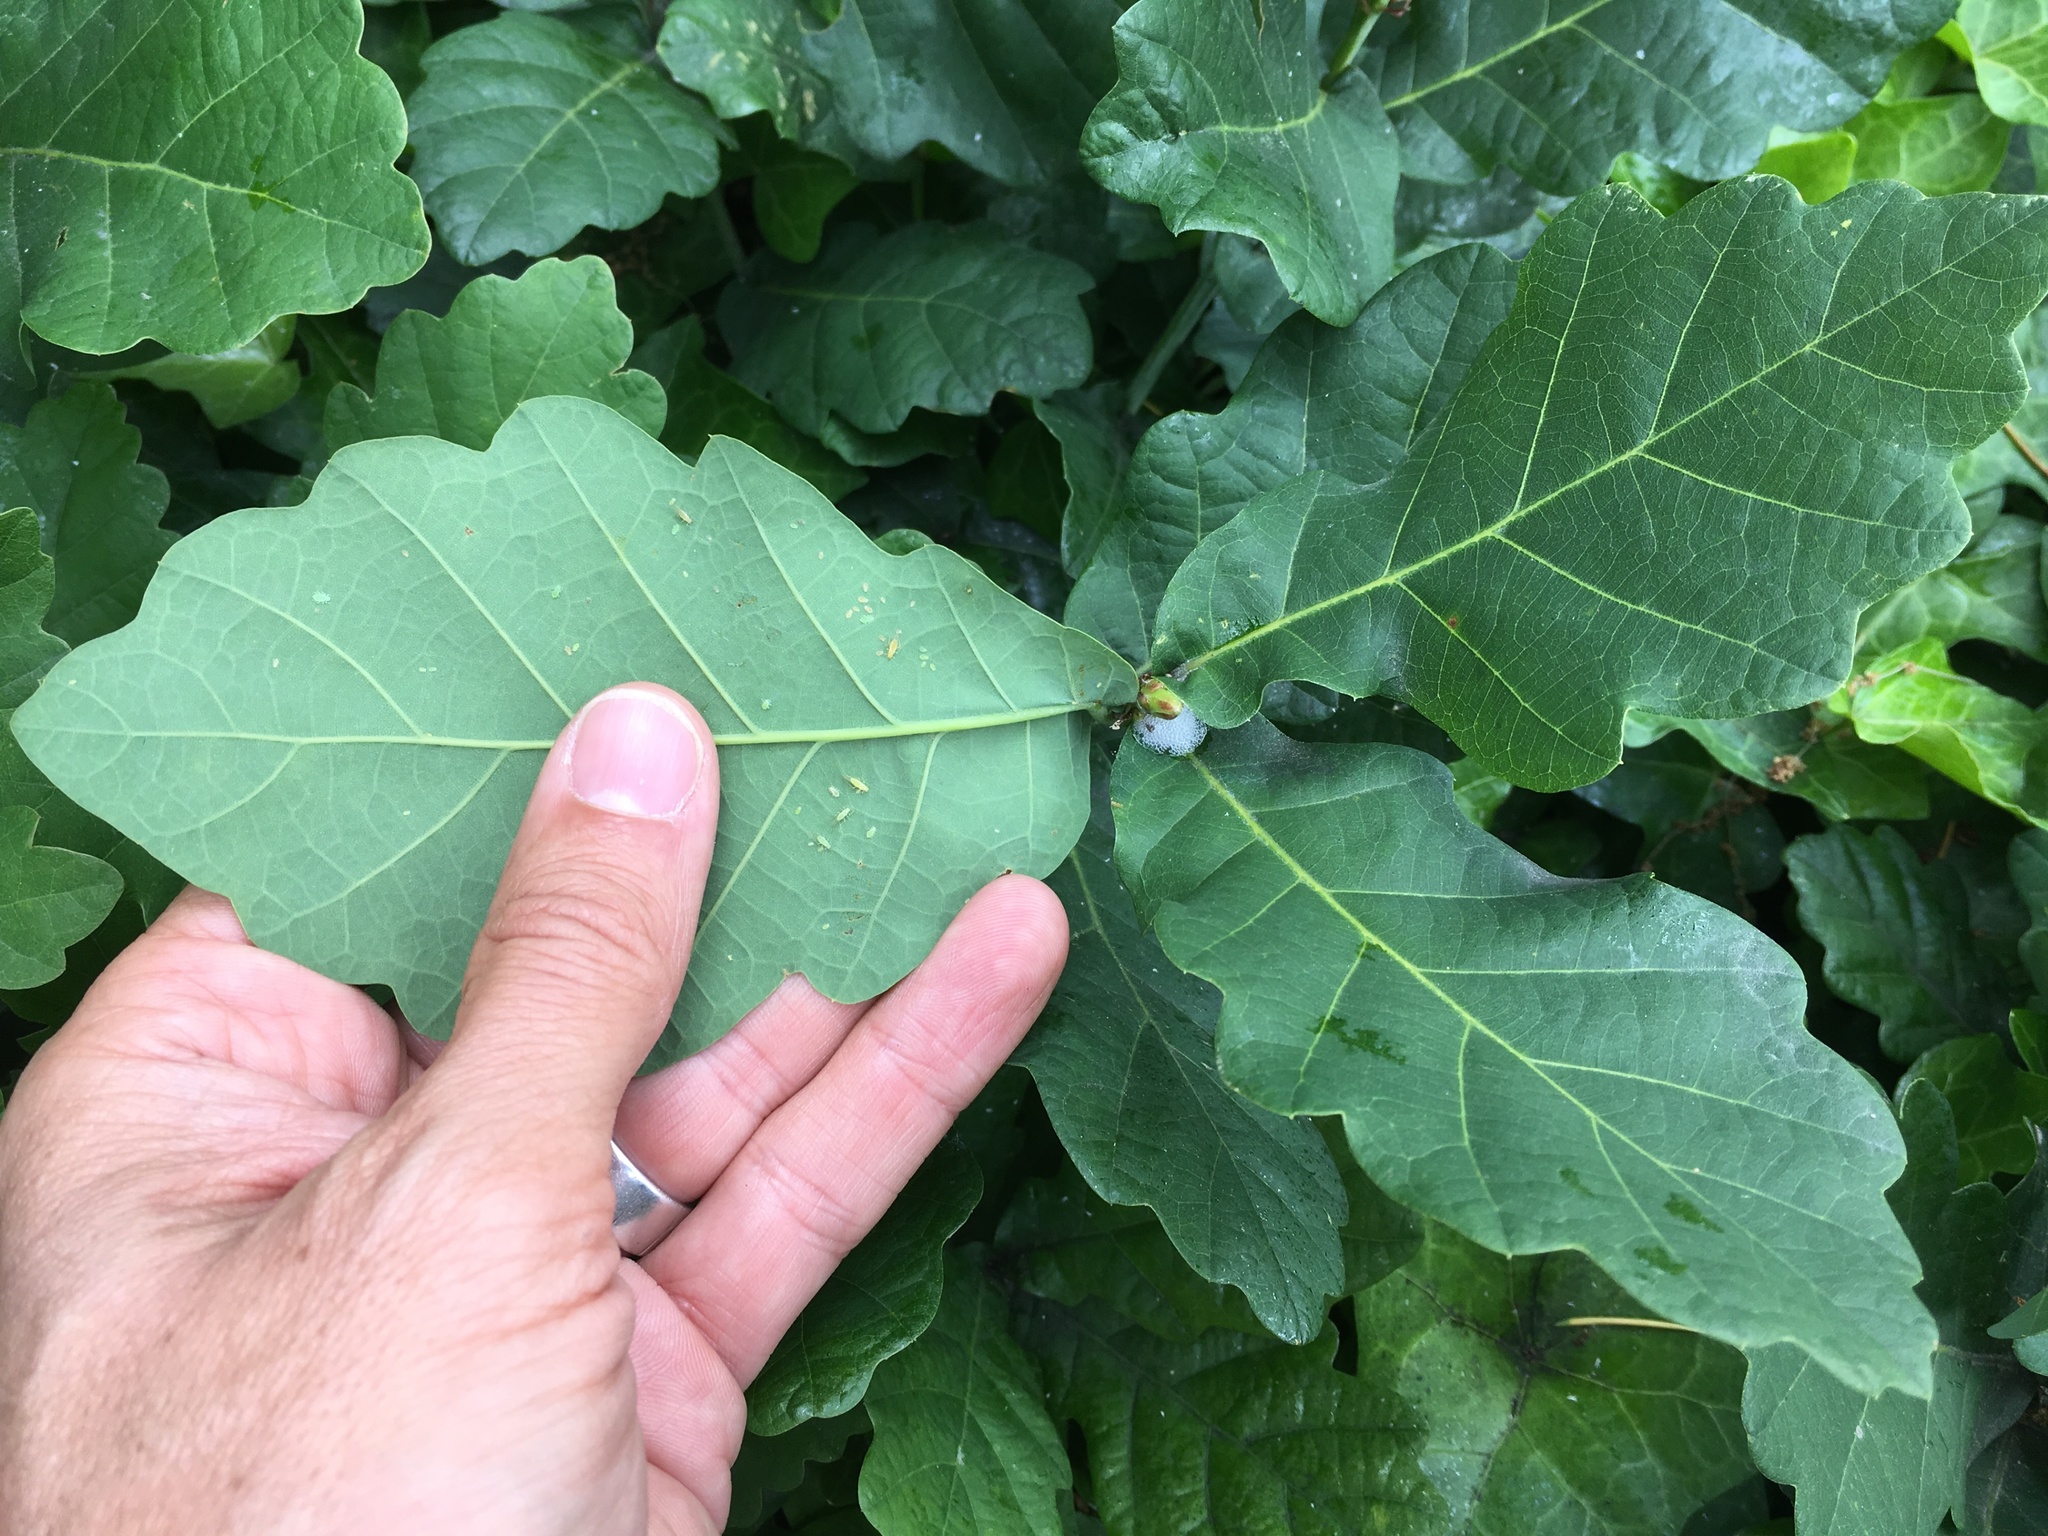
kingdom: Plantae
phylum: Tracheophyta
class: Magnoliopsida
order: Fagales
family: Fagaceae
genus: Quercus
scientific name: Quercus robur
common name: Pedunculate oak
